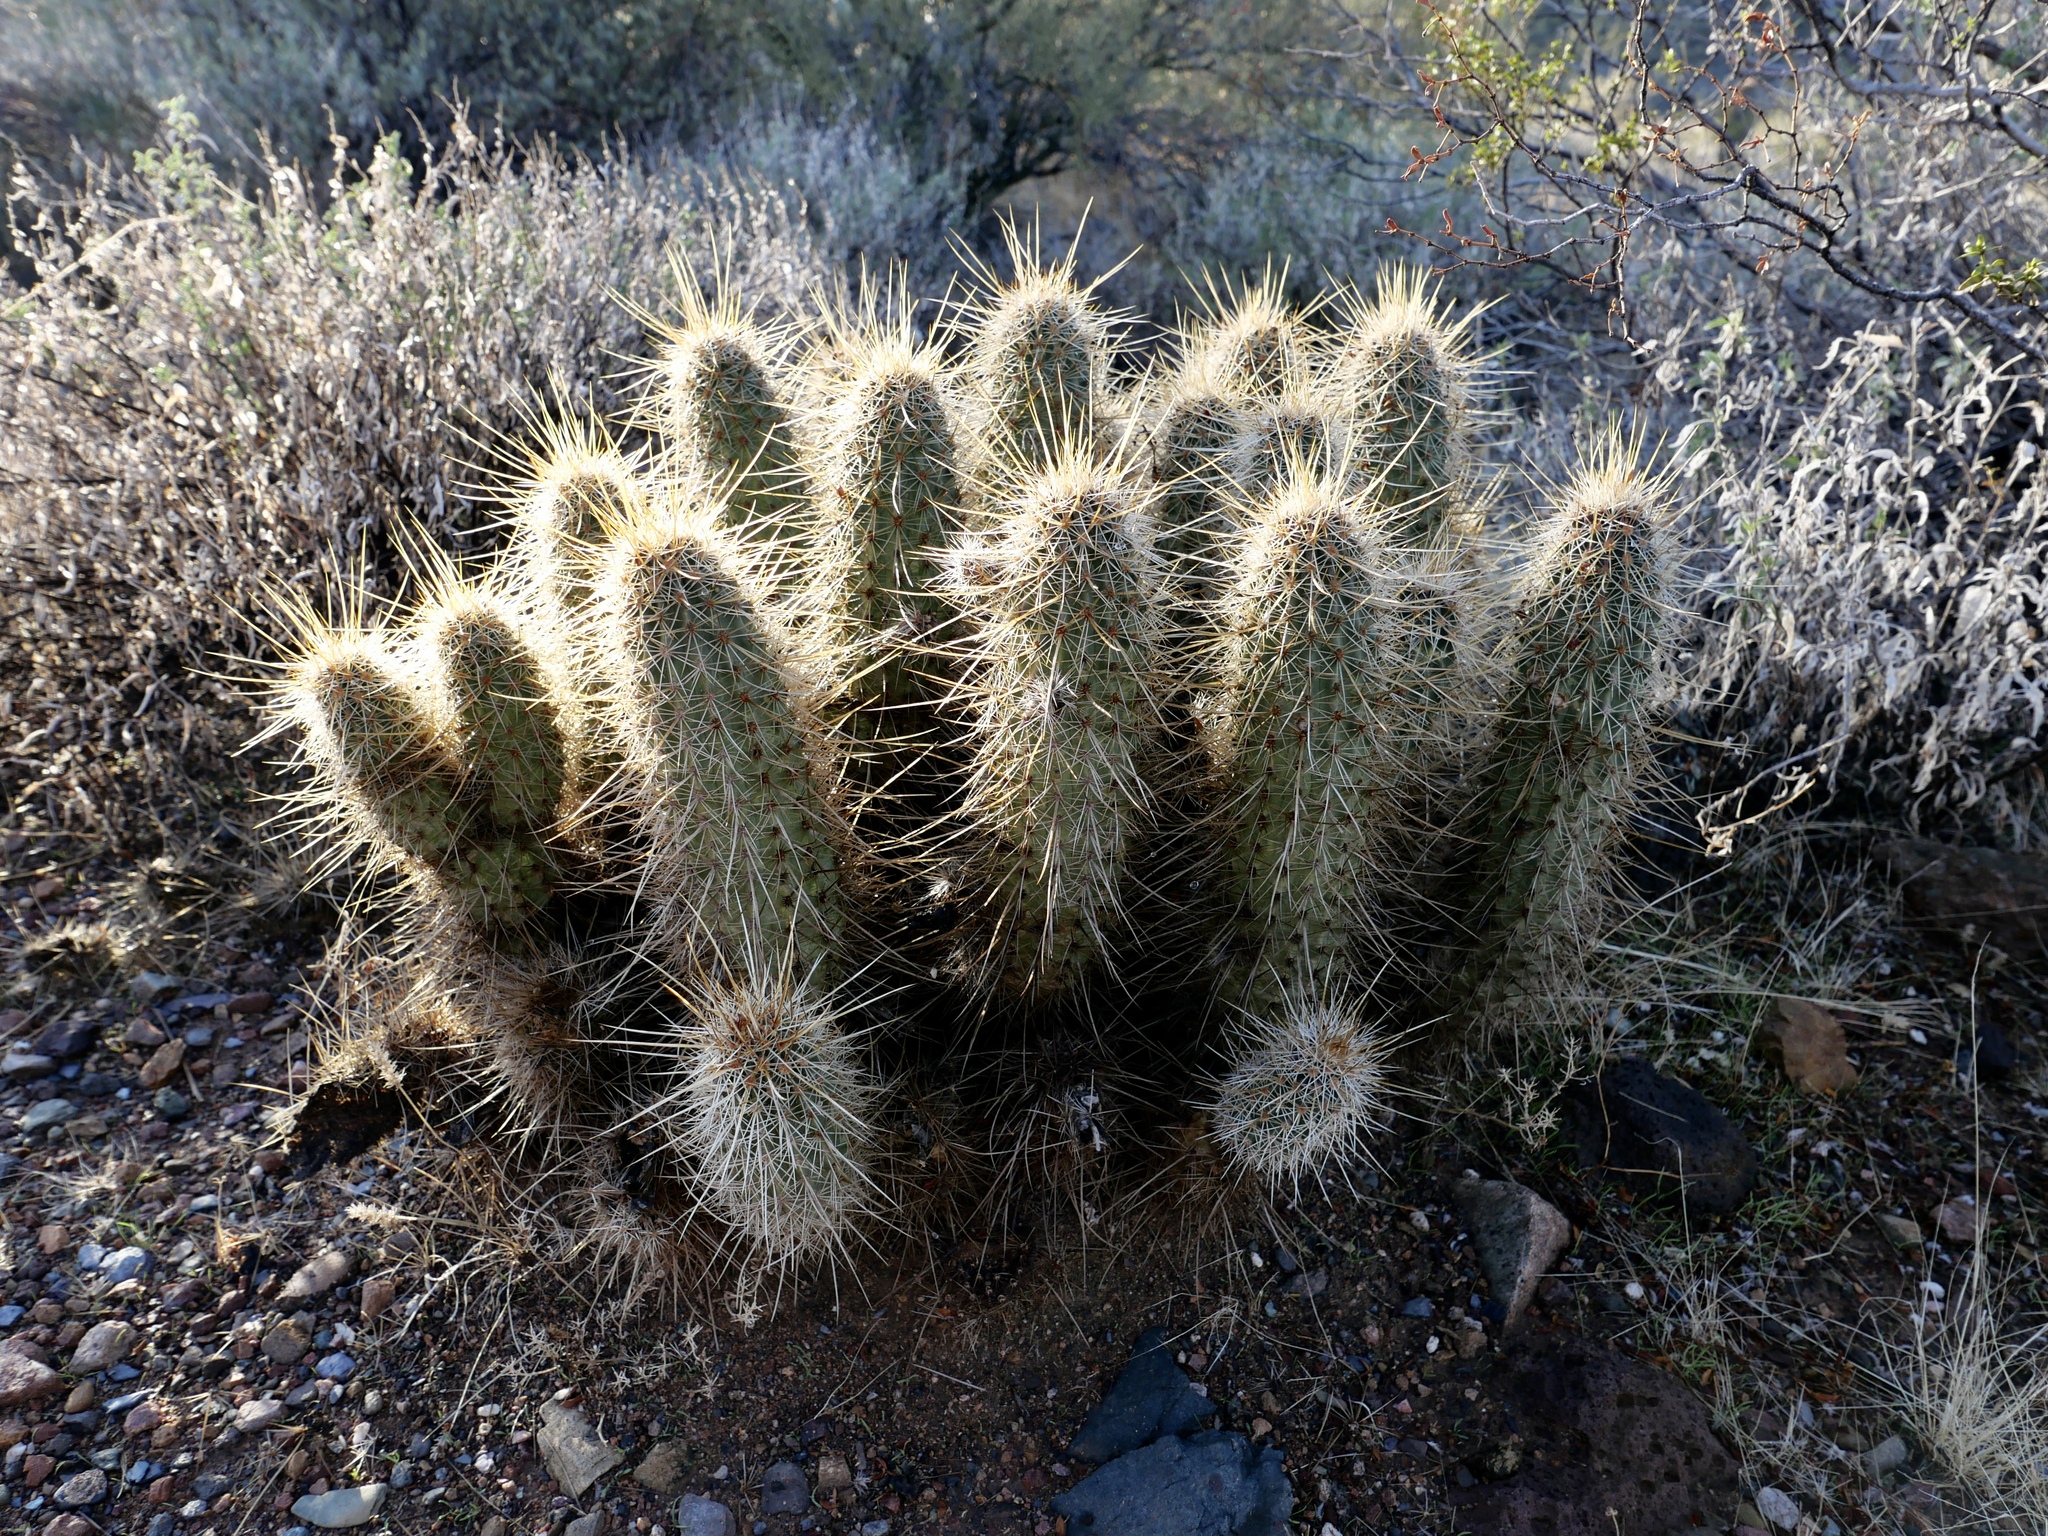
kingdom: Plantae
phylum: Tracheophyta
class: Magnoliopsida
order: Caryophyllales
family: Cactaceae
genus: Echinocereus
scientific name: Echinocereus engelmannii
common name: Engelmann's hedgehog cactus
